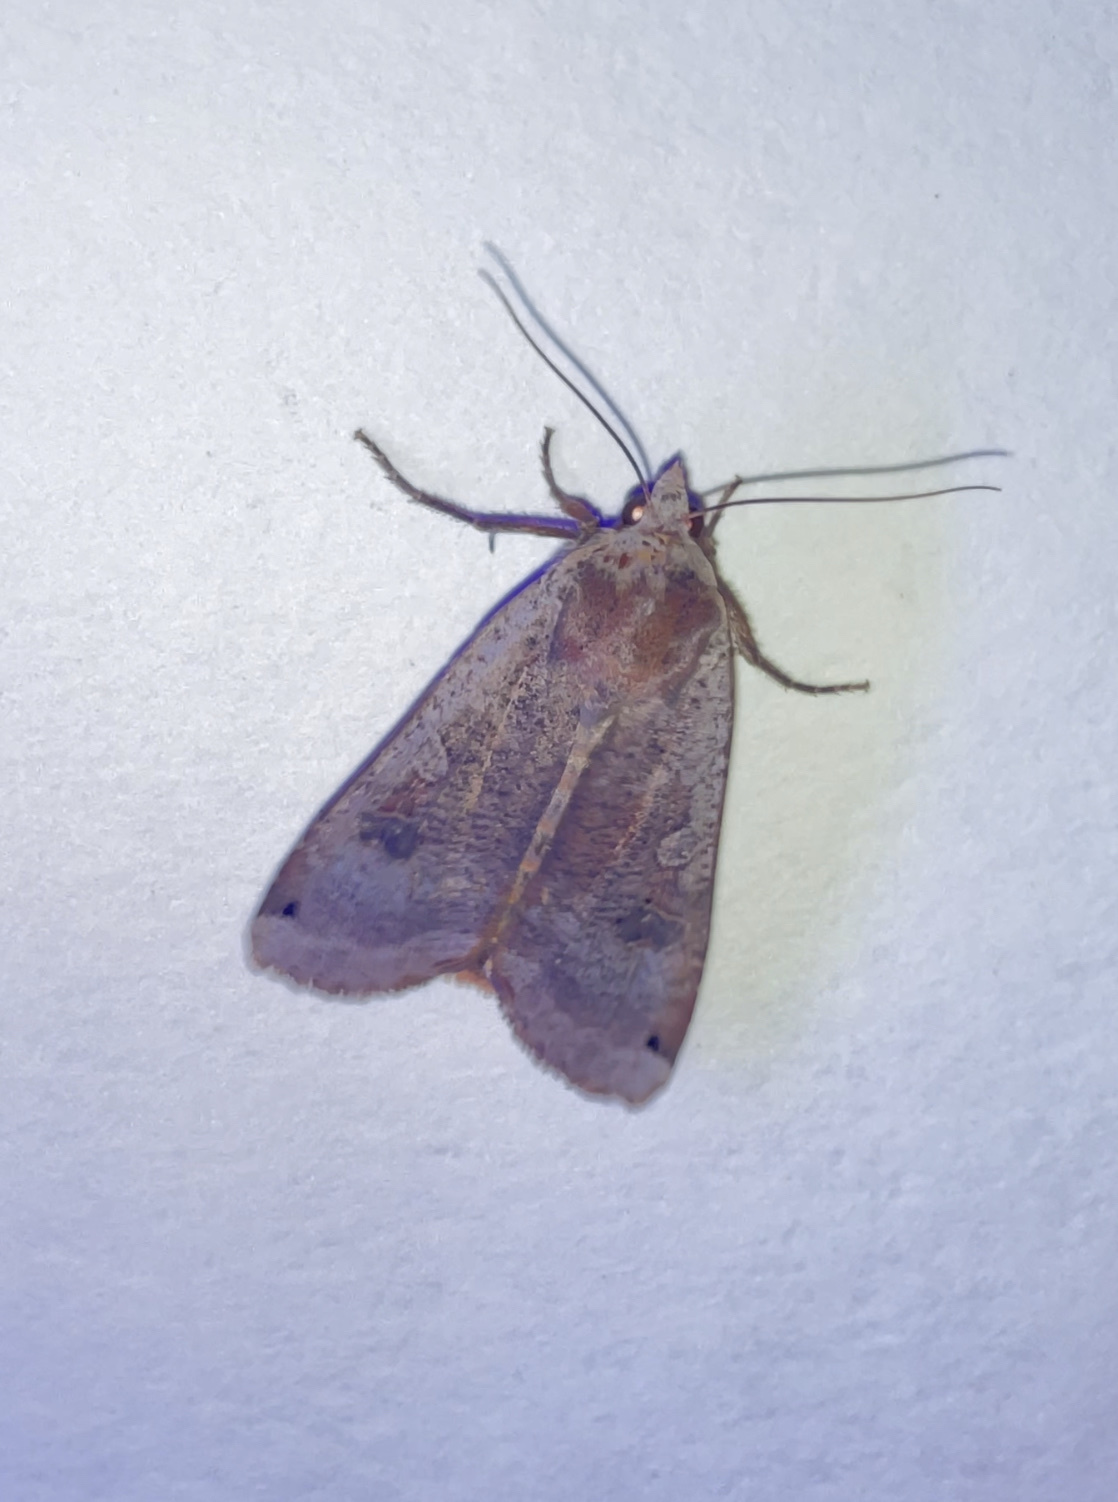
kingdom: Animalia
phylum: Arthropoda
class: Insecta
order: Lepidoptera
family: Noctuidae
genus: Noctua
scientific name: Noctua pronuba
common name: Large yellow underwing
